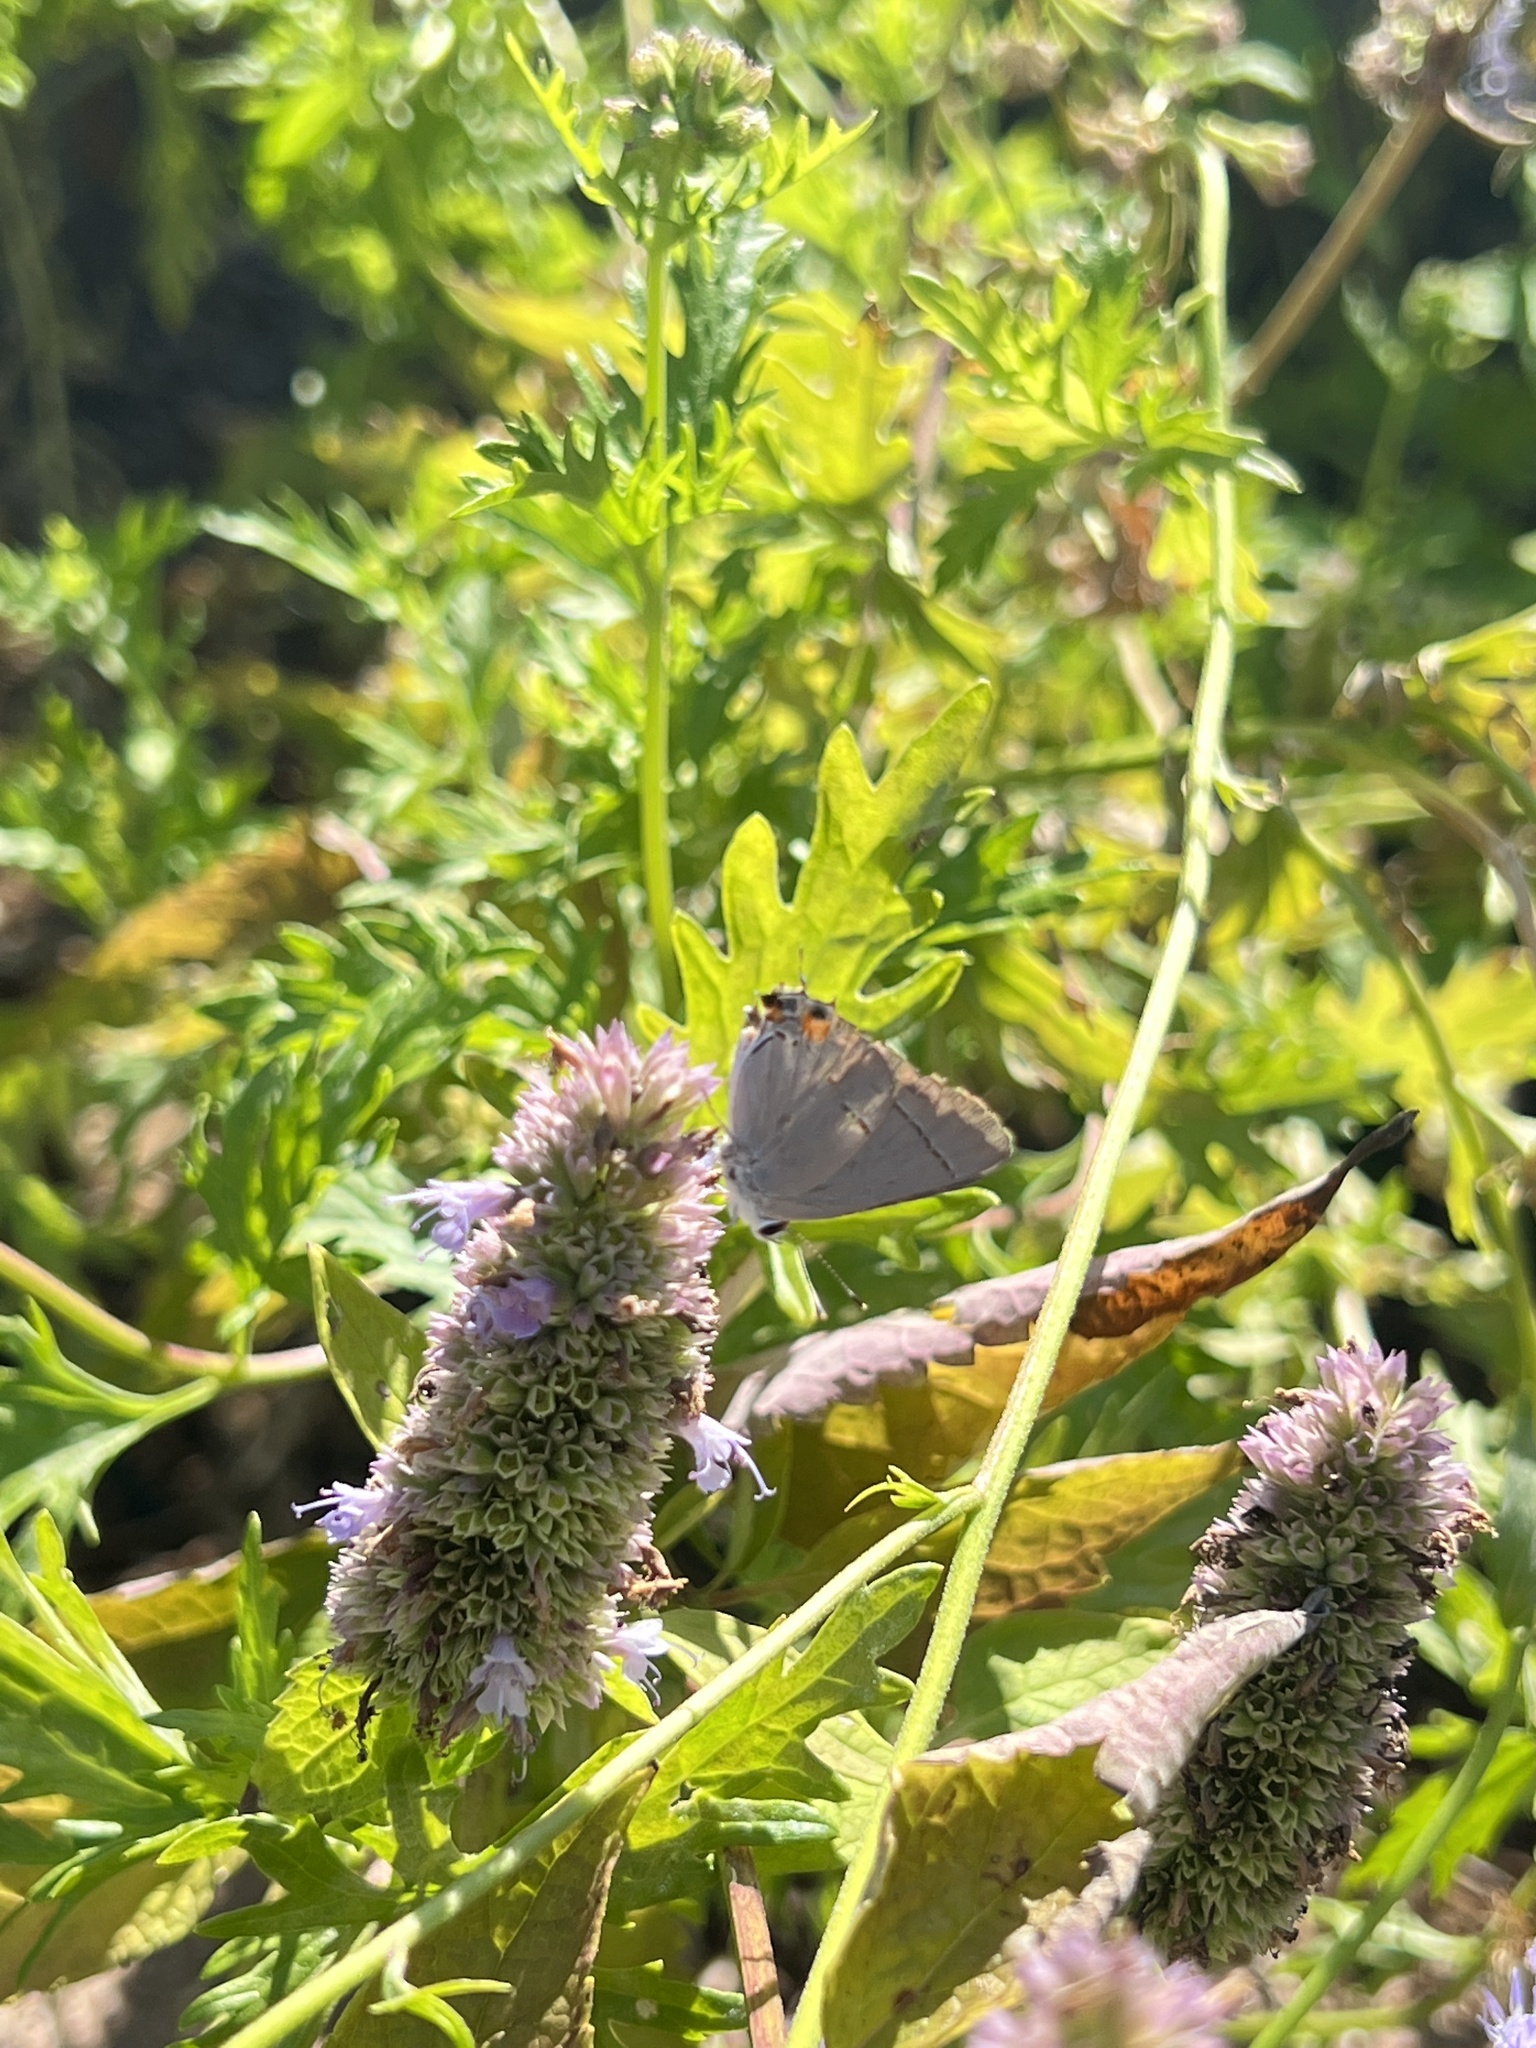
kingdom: Animalia
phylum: Arthropoda
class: Insecta
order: Lepidoptera
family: Lycaenidae
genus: Strymon
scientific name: Strymon melinus
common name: Gray hairstreak
